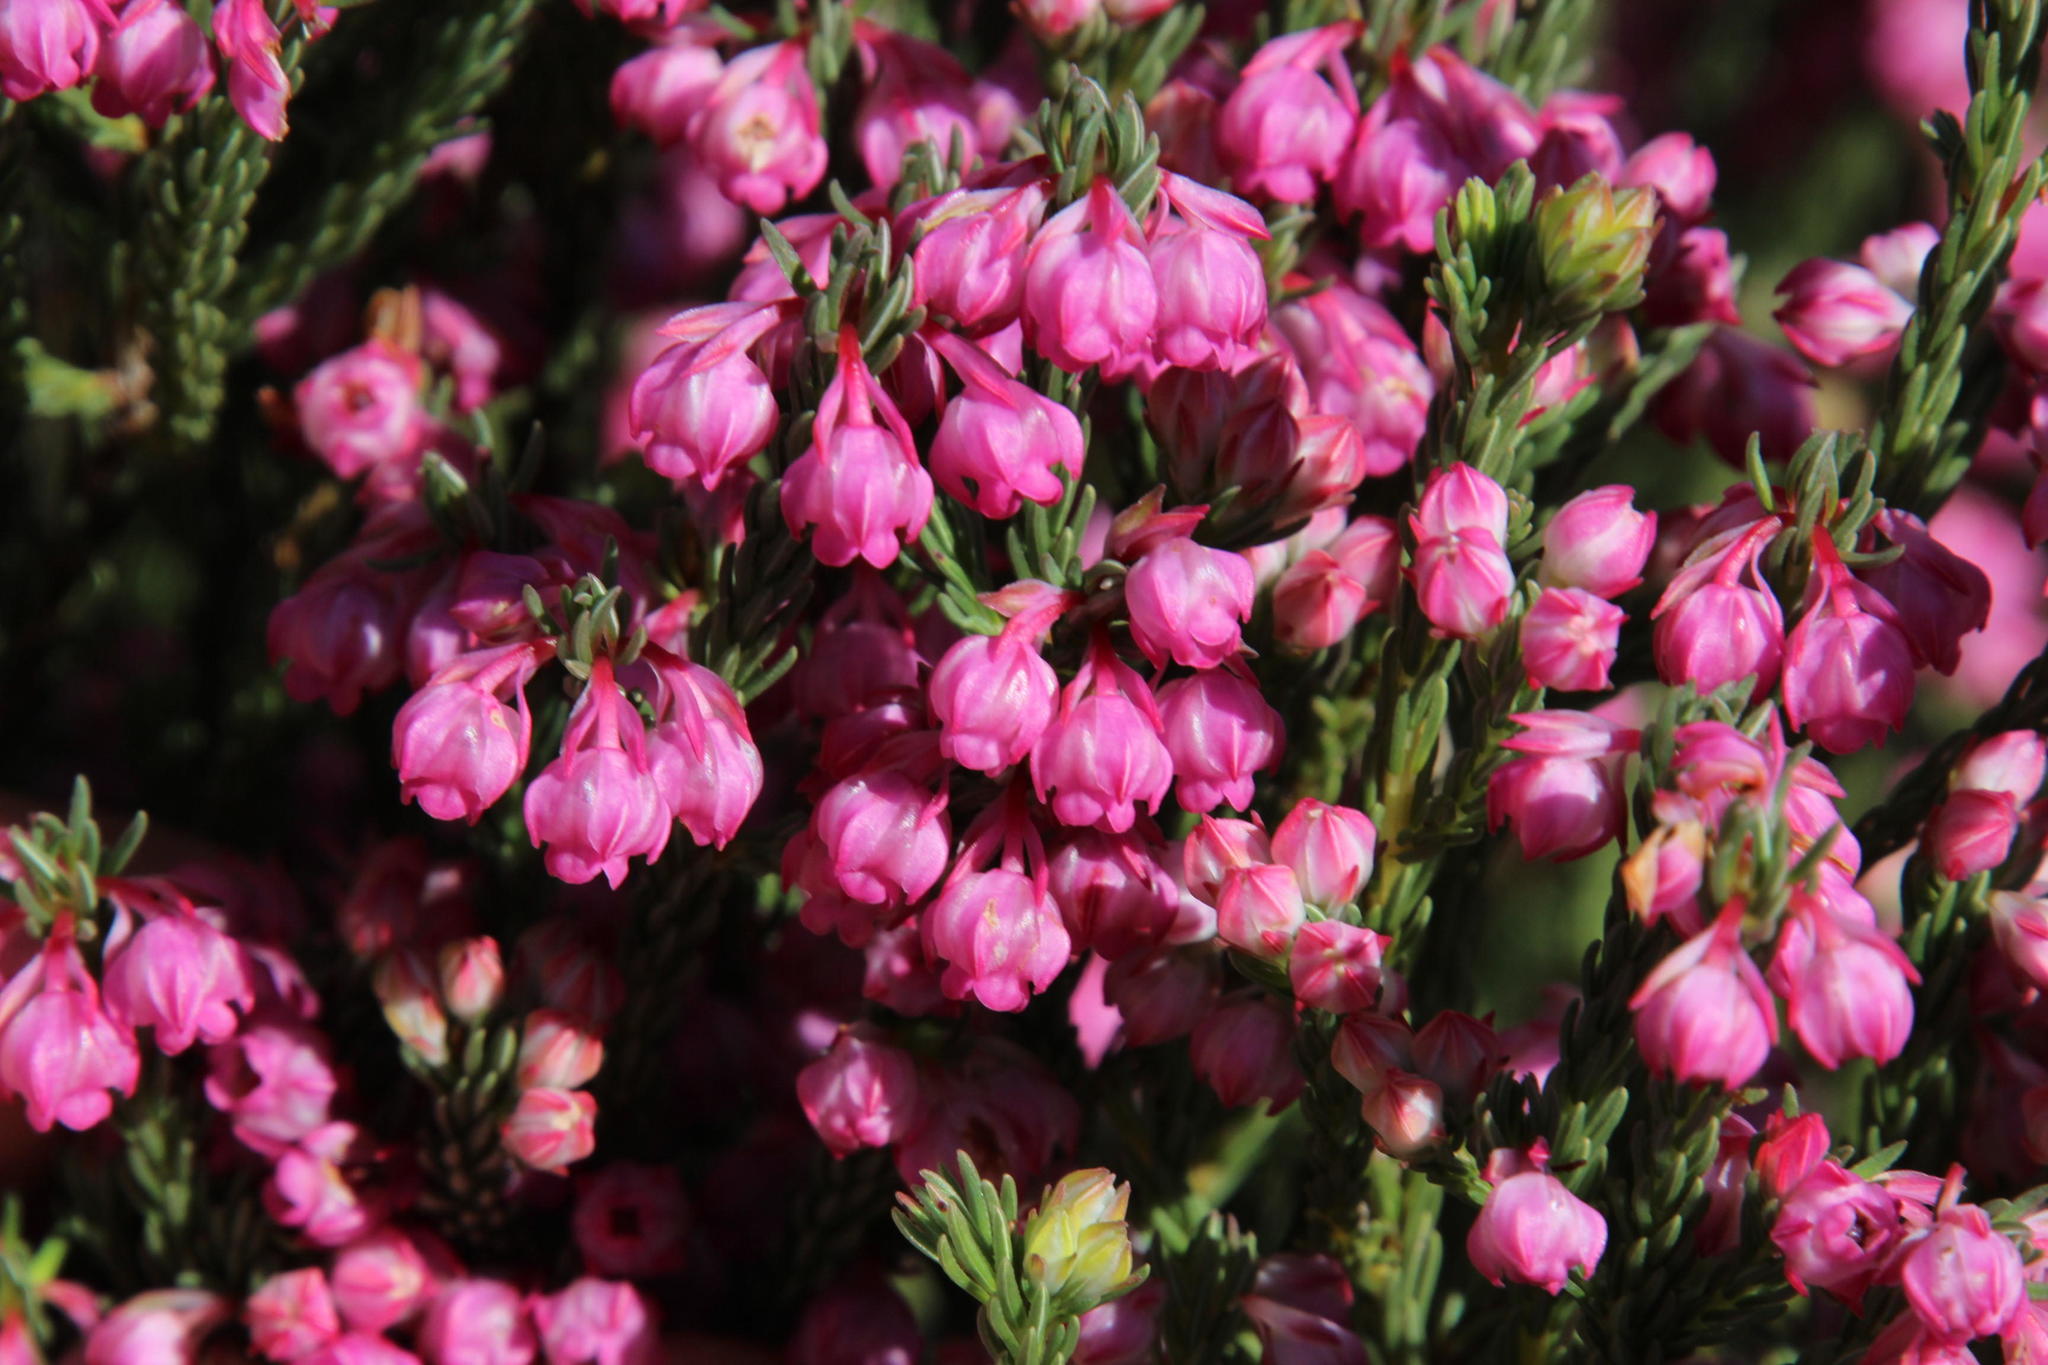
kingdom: Plantae
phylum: Tracheophyta
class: Magnoliopsida
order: Ericales
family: Ericaceae
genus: Erica
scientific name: Erica baccans
